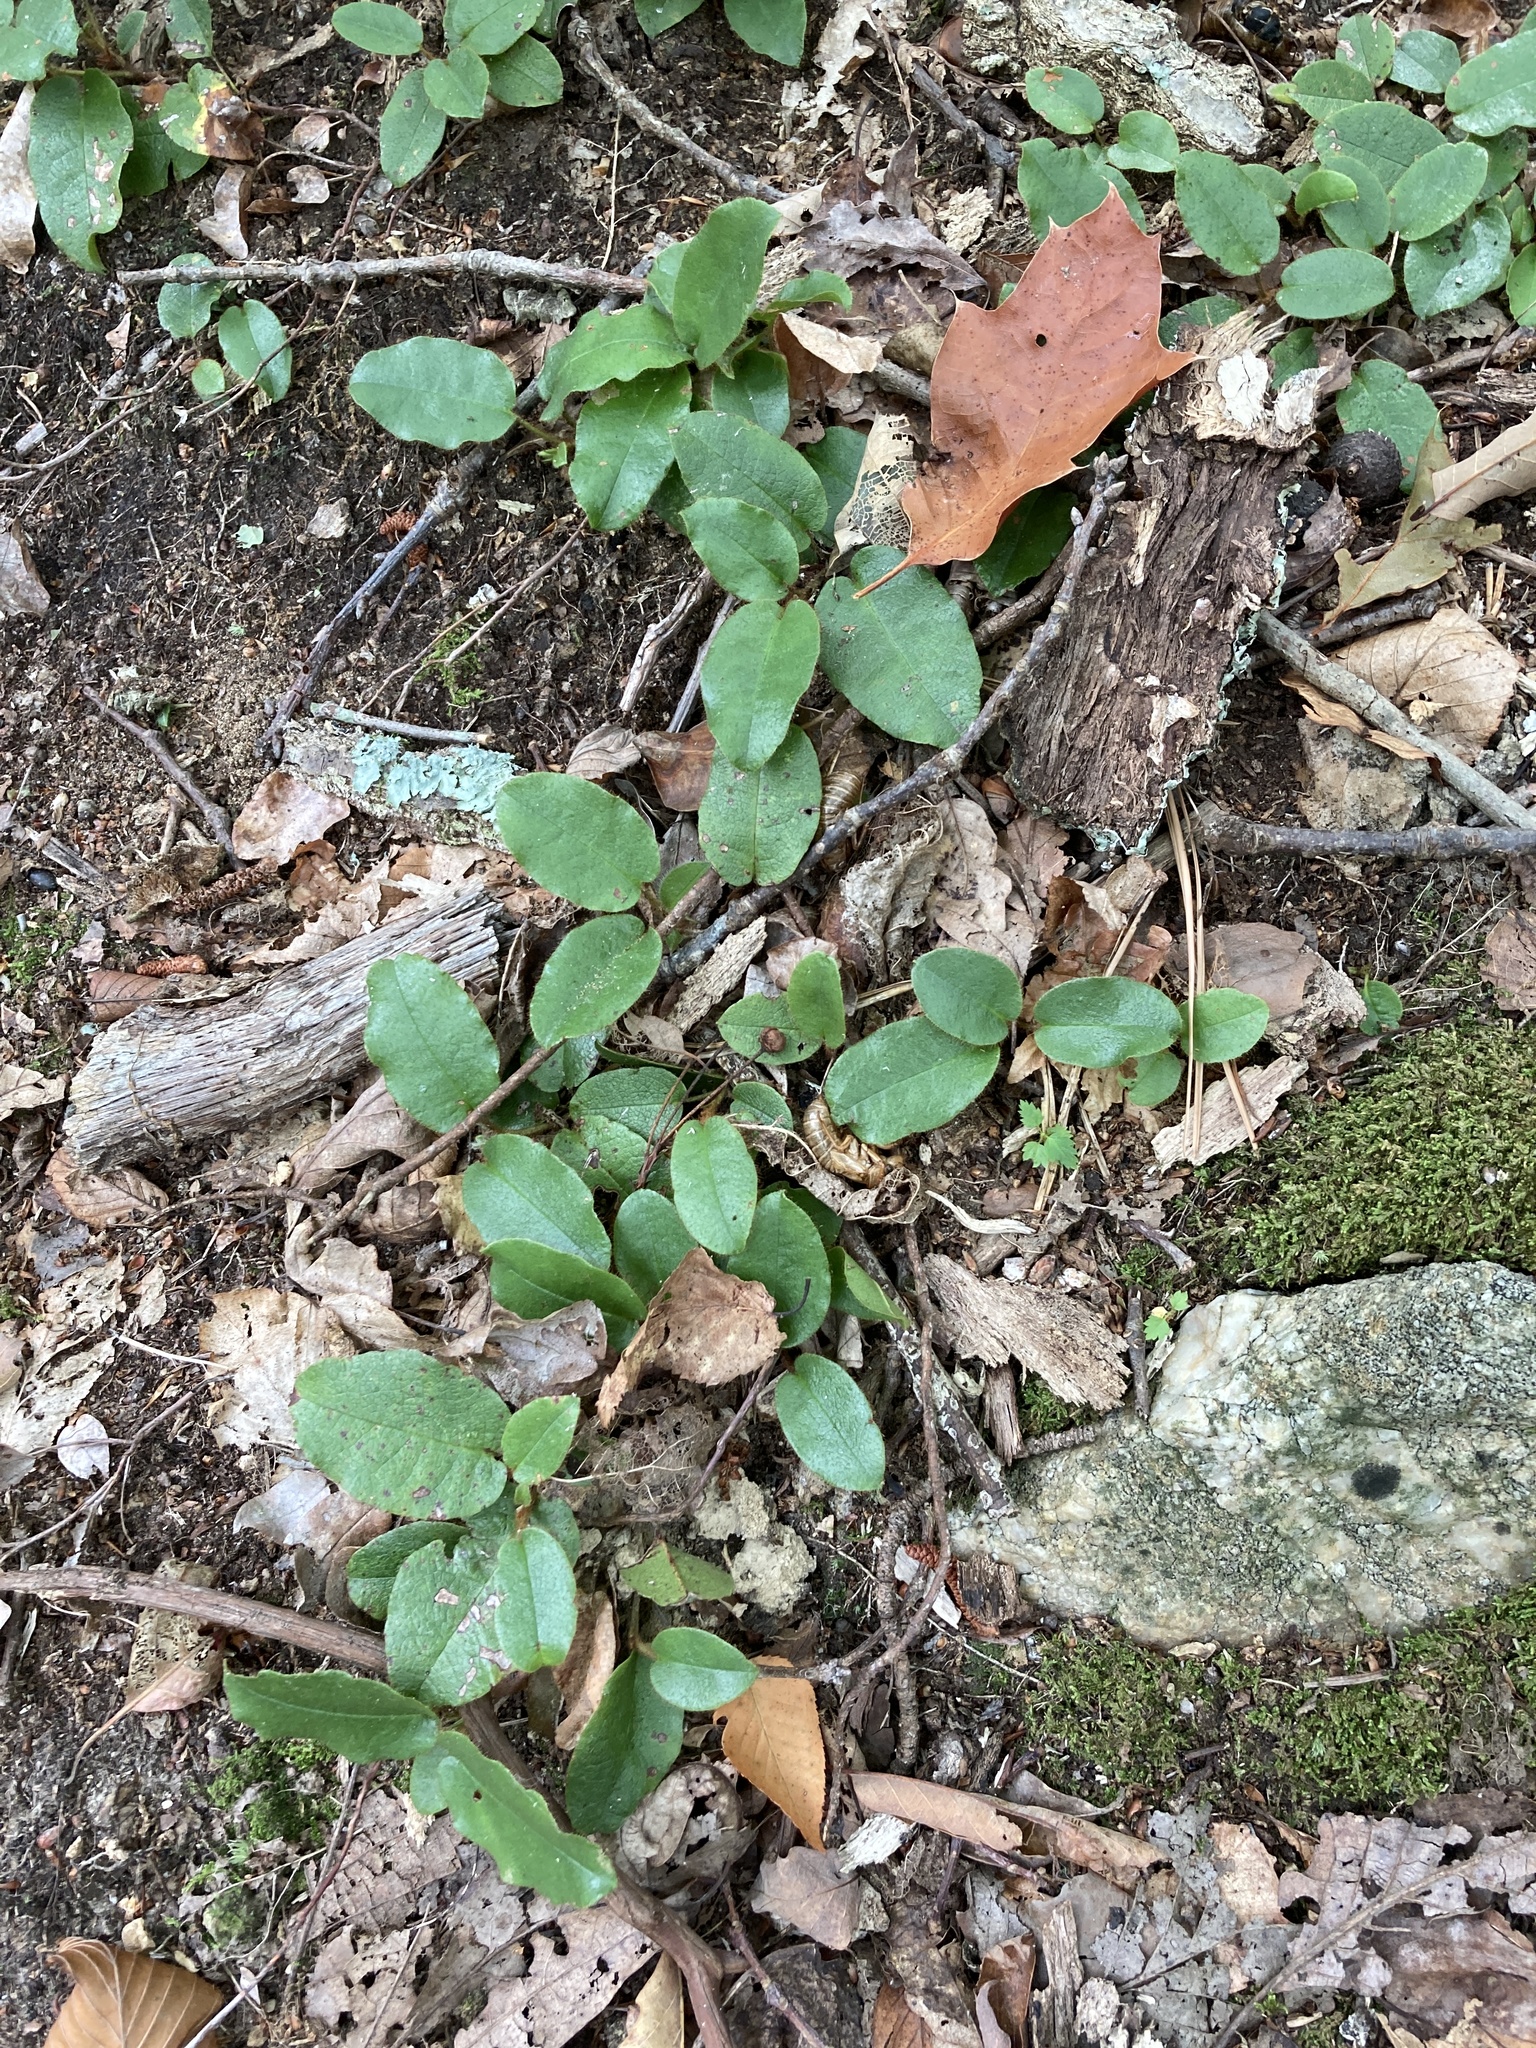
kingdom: Plantae
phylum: Tracheophyta
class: Magnoliopsida
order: Ericales
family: Ericaceae
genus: Epigaea
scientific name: Epigaea repens
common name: Gravelroot
